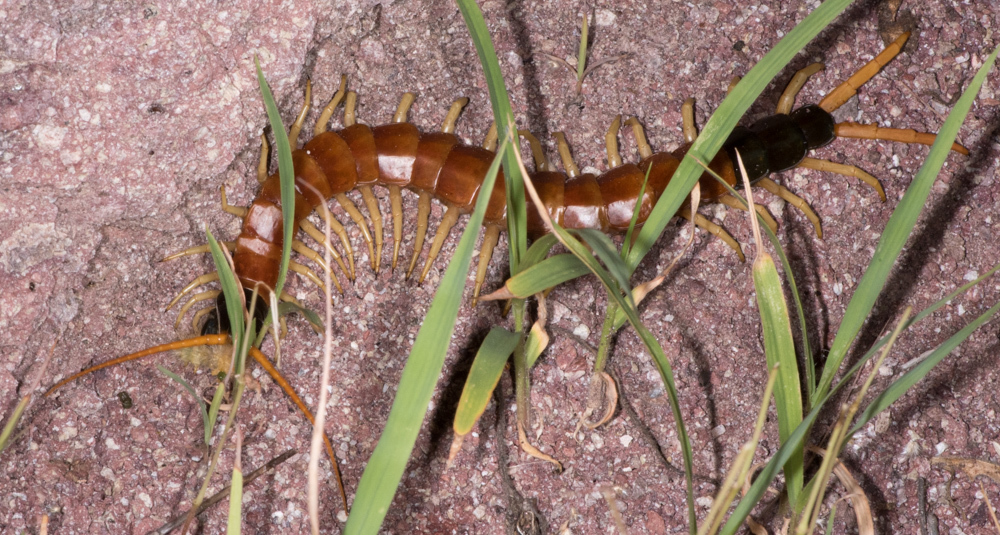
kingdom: Animalia
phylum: Arthropoda
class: Chilopoda
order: Scolopendromorpha
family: Scolopendridae
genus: Scolopendra
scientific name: Scolopendra heros
